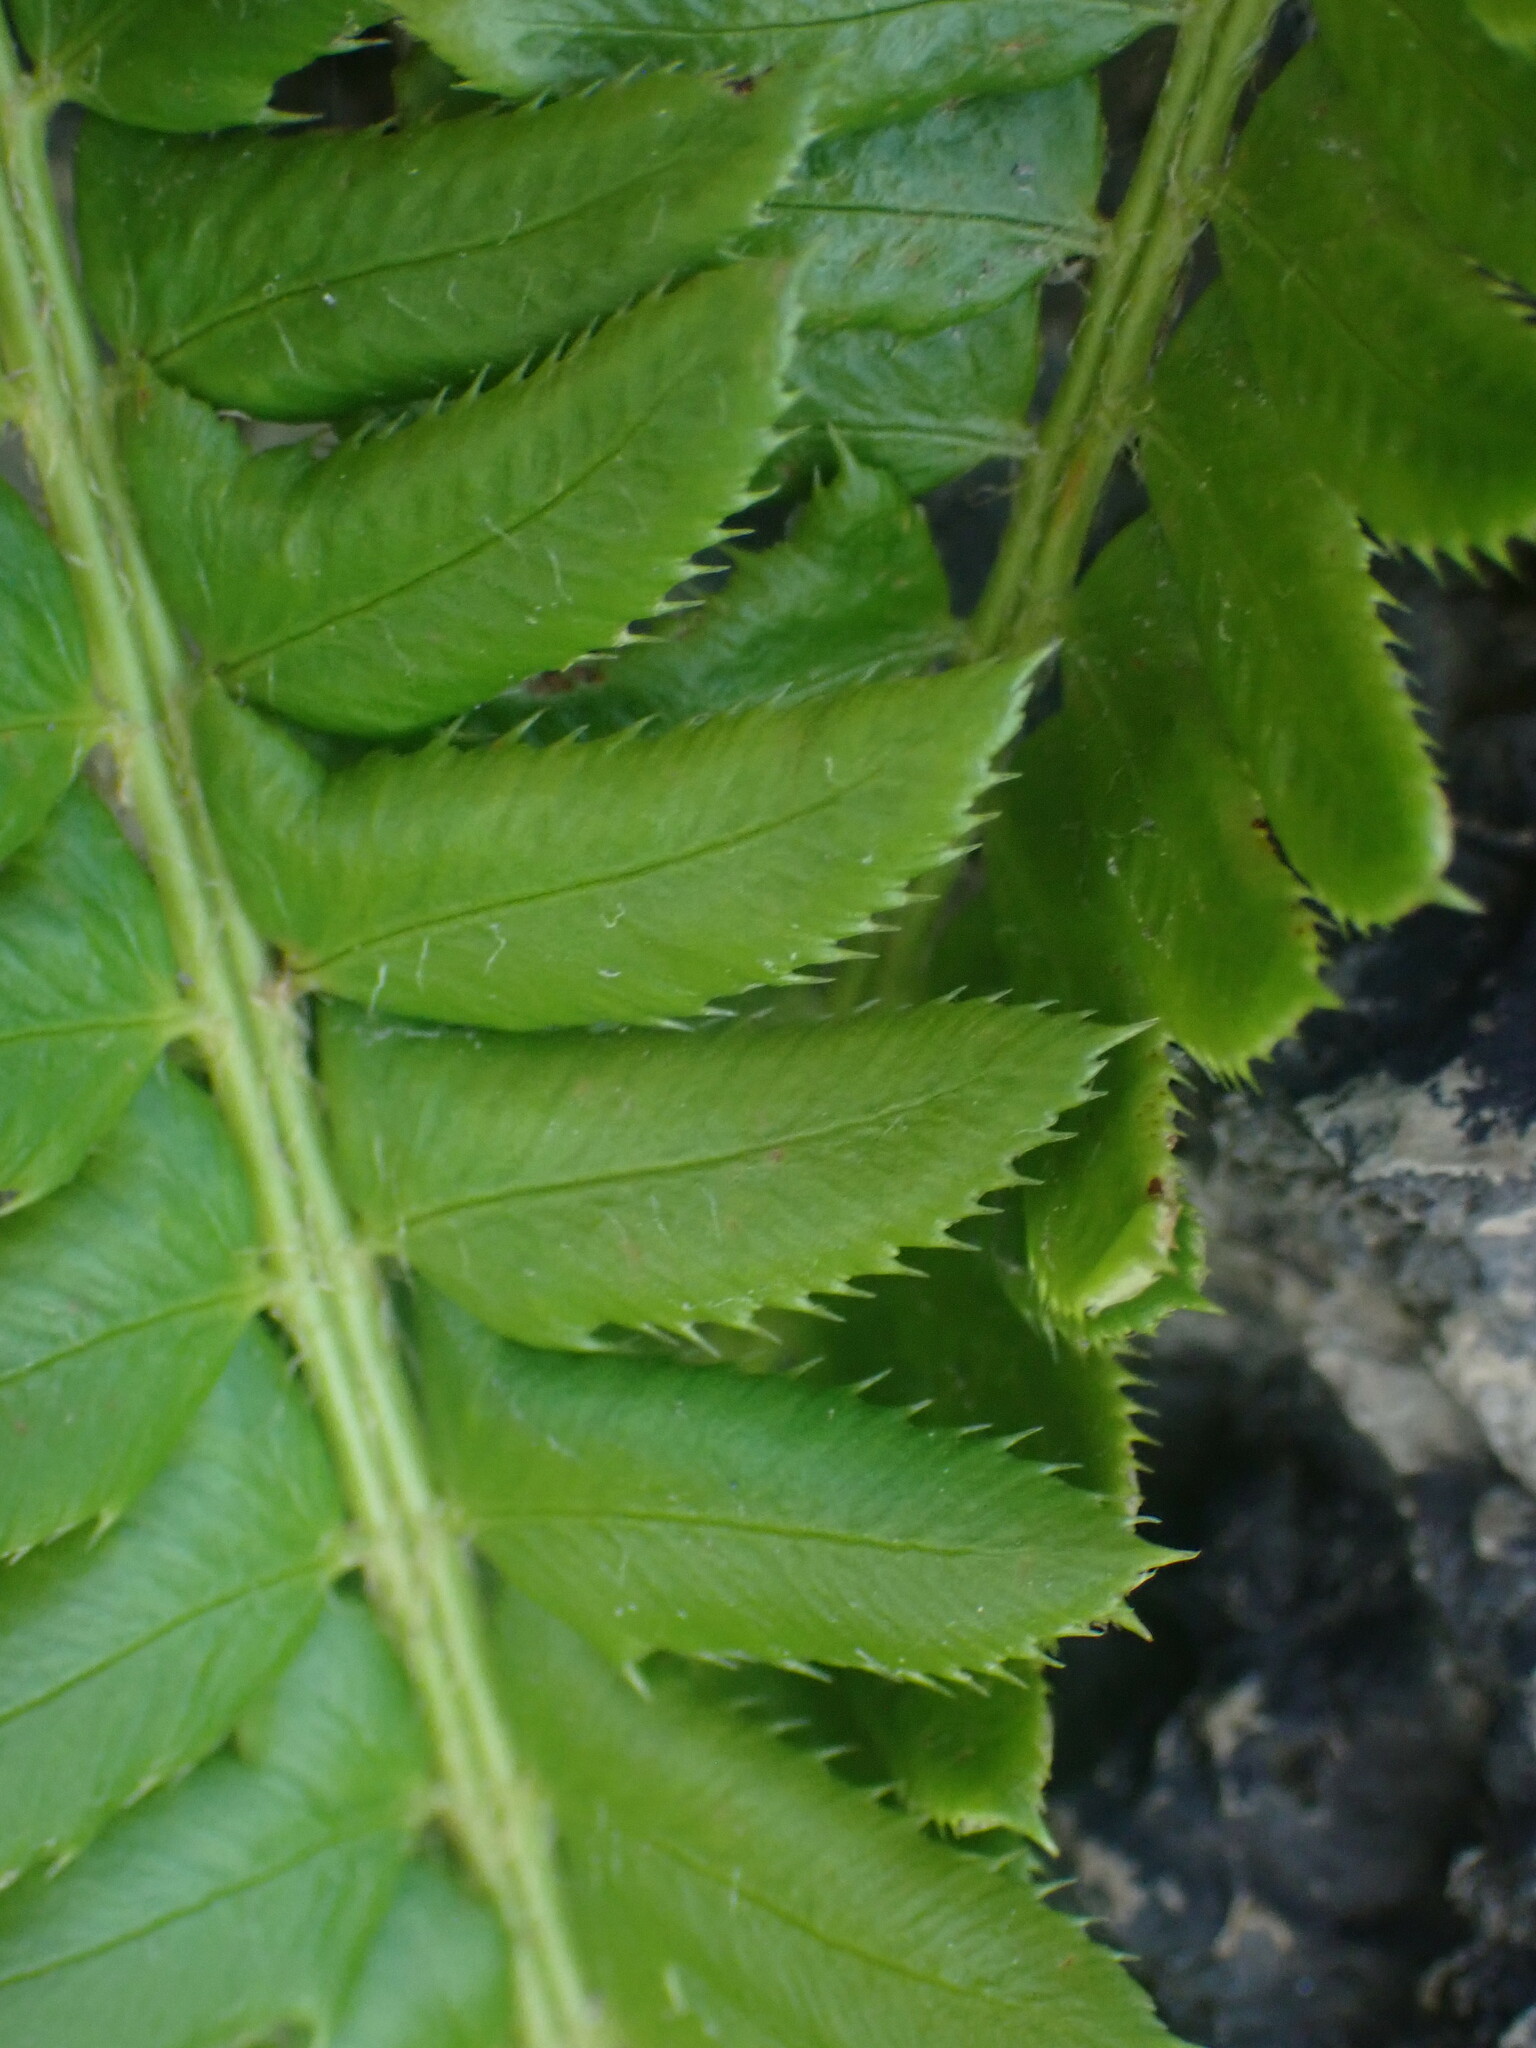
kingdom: Plantae
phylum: Tracheophyta
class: Polypodiopsida
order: Polypodiales
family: Dryopteridaceae
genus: Polystichum
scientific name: Polystichum lonchitis
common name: Holly fern
